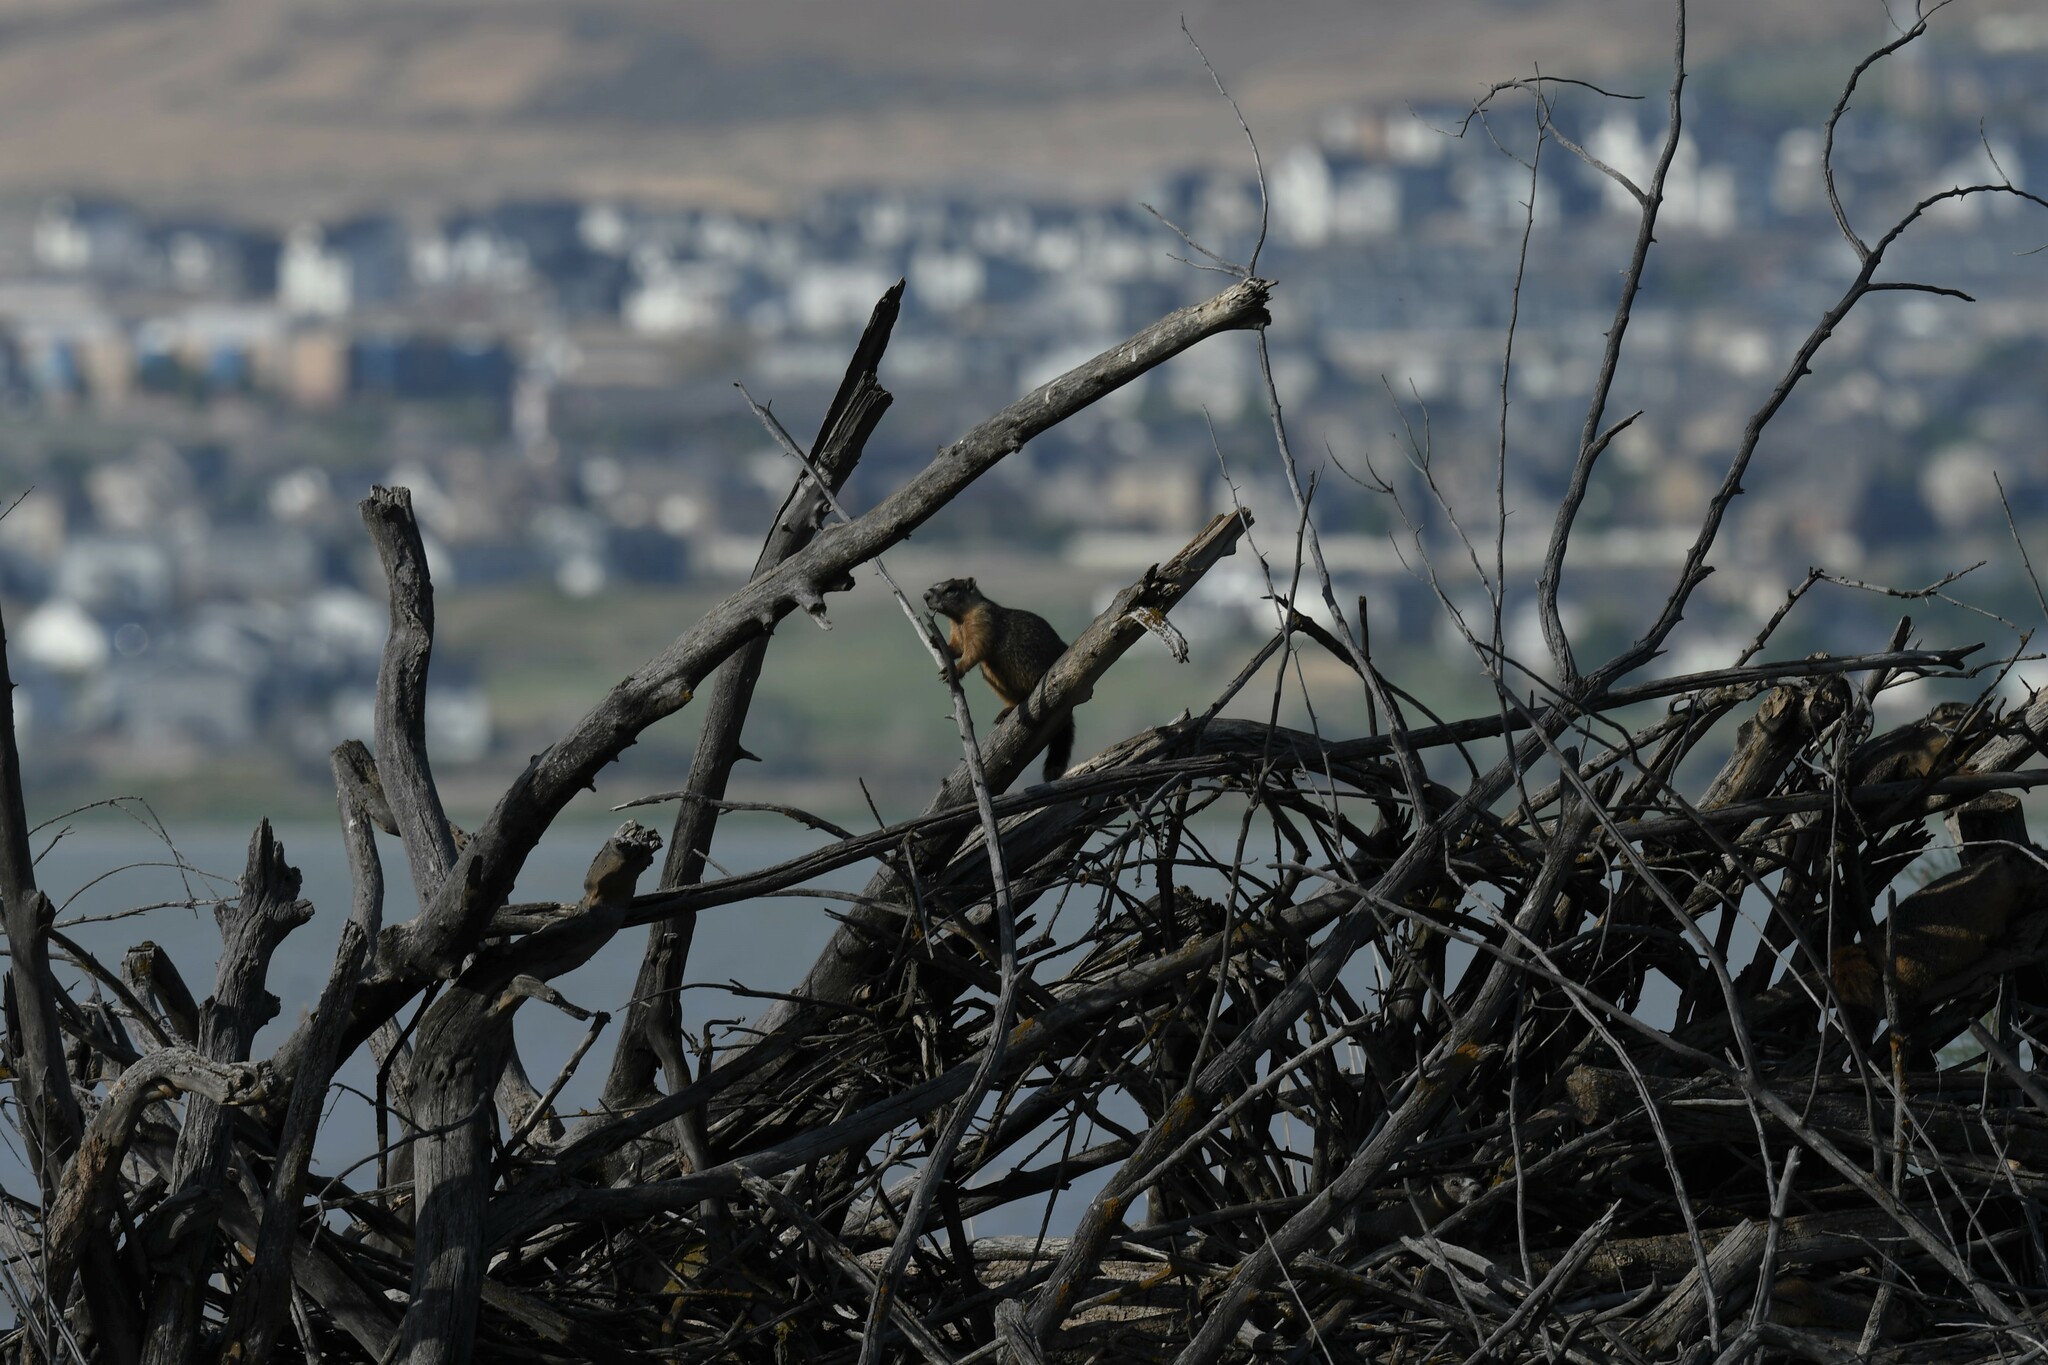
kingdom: Animalia
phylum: Chordata
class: Mammalia
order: Rodentia
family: Sciuridae
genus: Marmota
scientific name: Marmota flaviventris
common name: Yellow-bellied marmot
